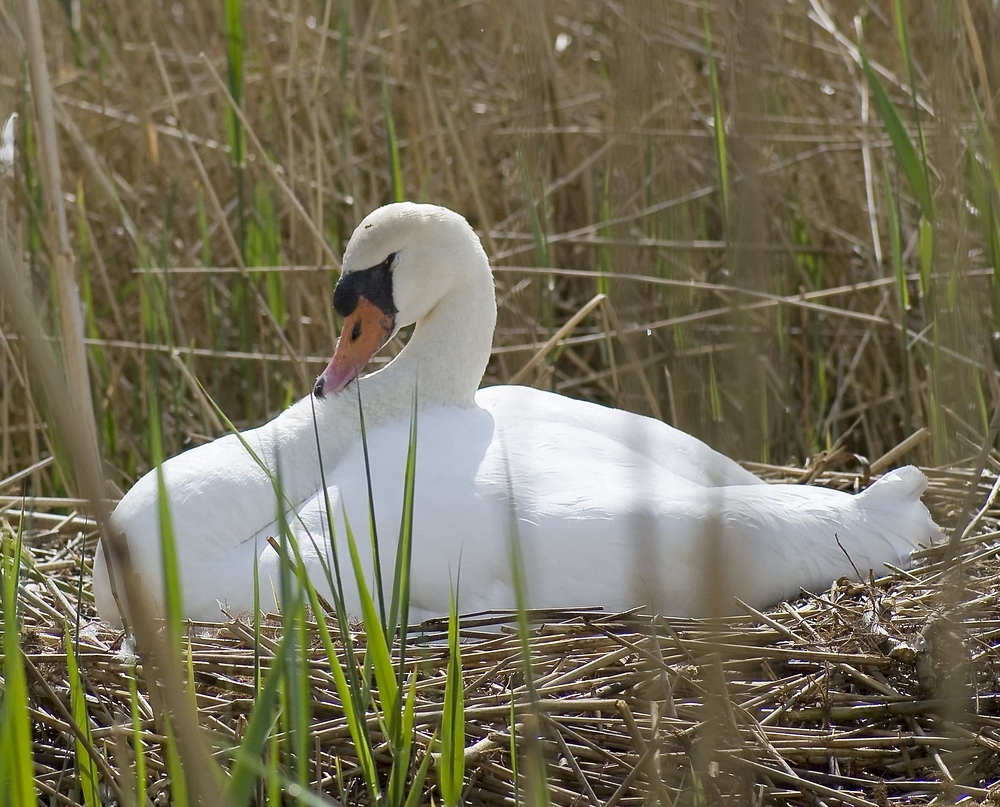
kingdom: Animalia
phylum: Chordata
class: Aves
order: Anseriformes
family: Anatidae
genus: Cygnus
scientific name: Cygnus olor
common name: Mute swan
